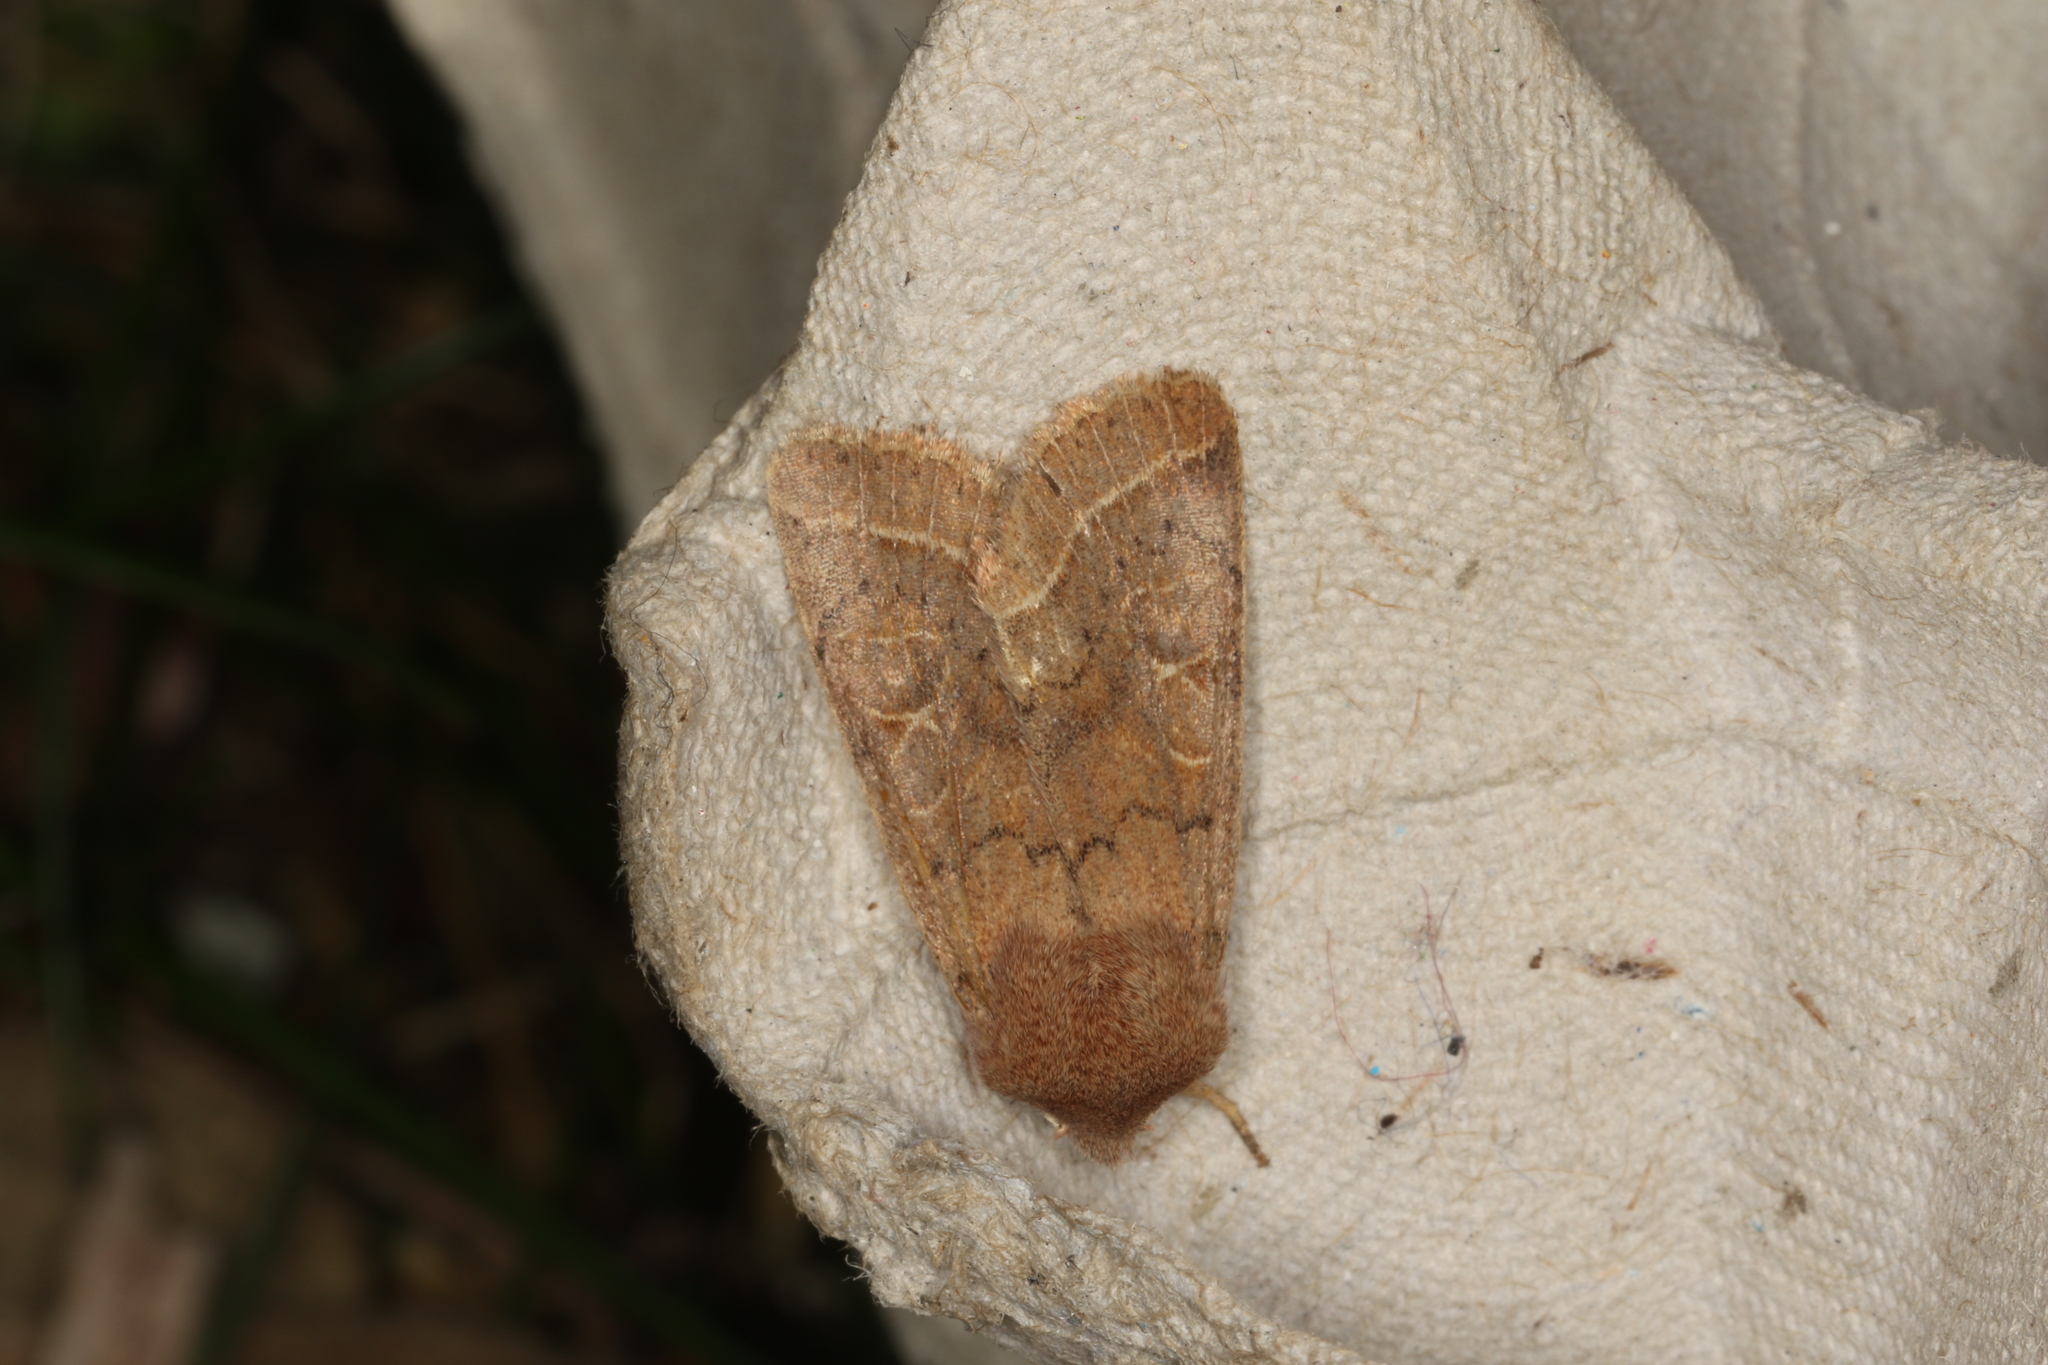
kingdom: Animalia
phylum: Arthropoda
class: Insecta
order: Lepidoptera
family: Noctuidae
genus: Orthosia
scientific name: Orthosia cerasi
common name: Common quaker
